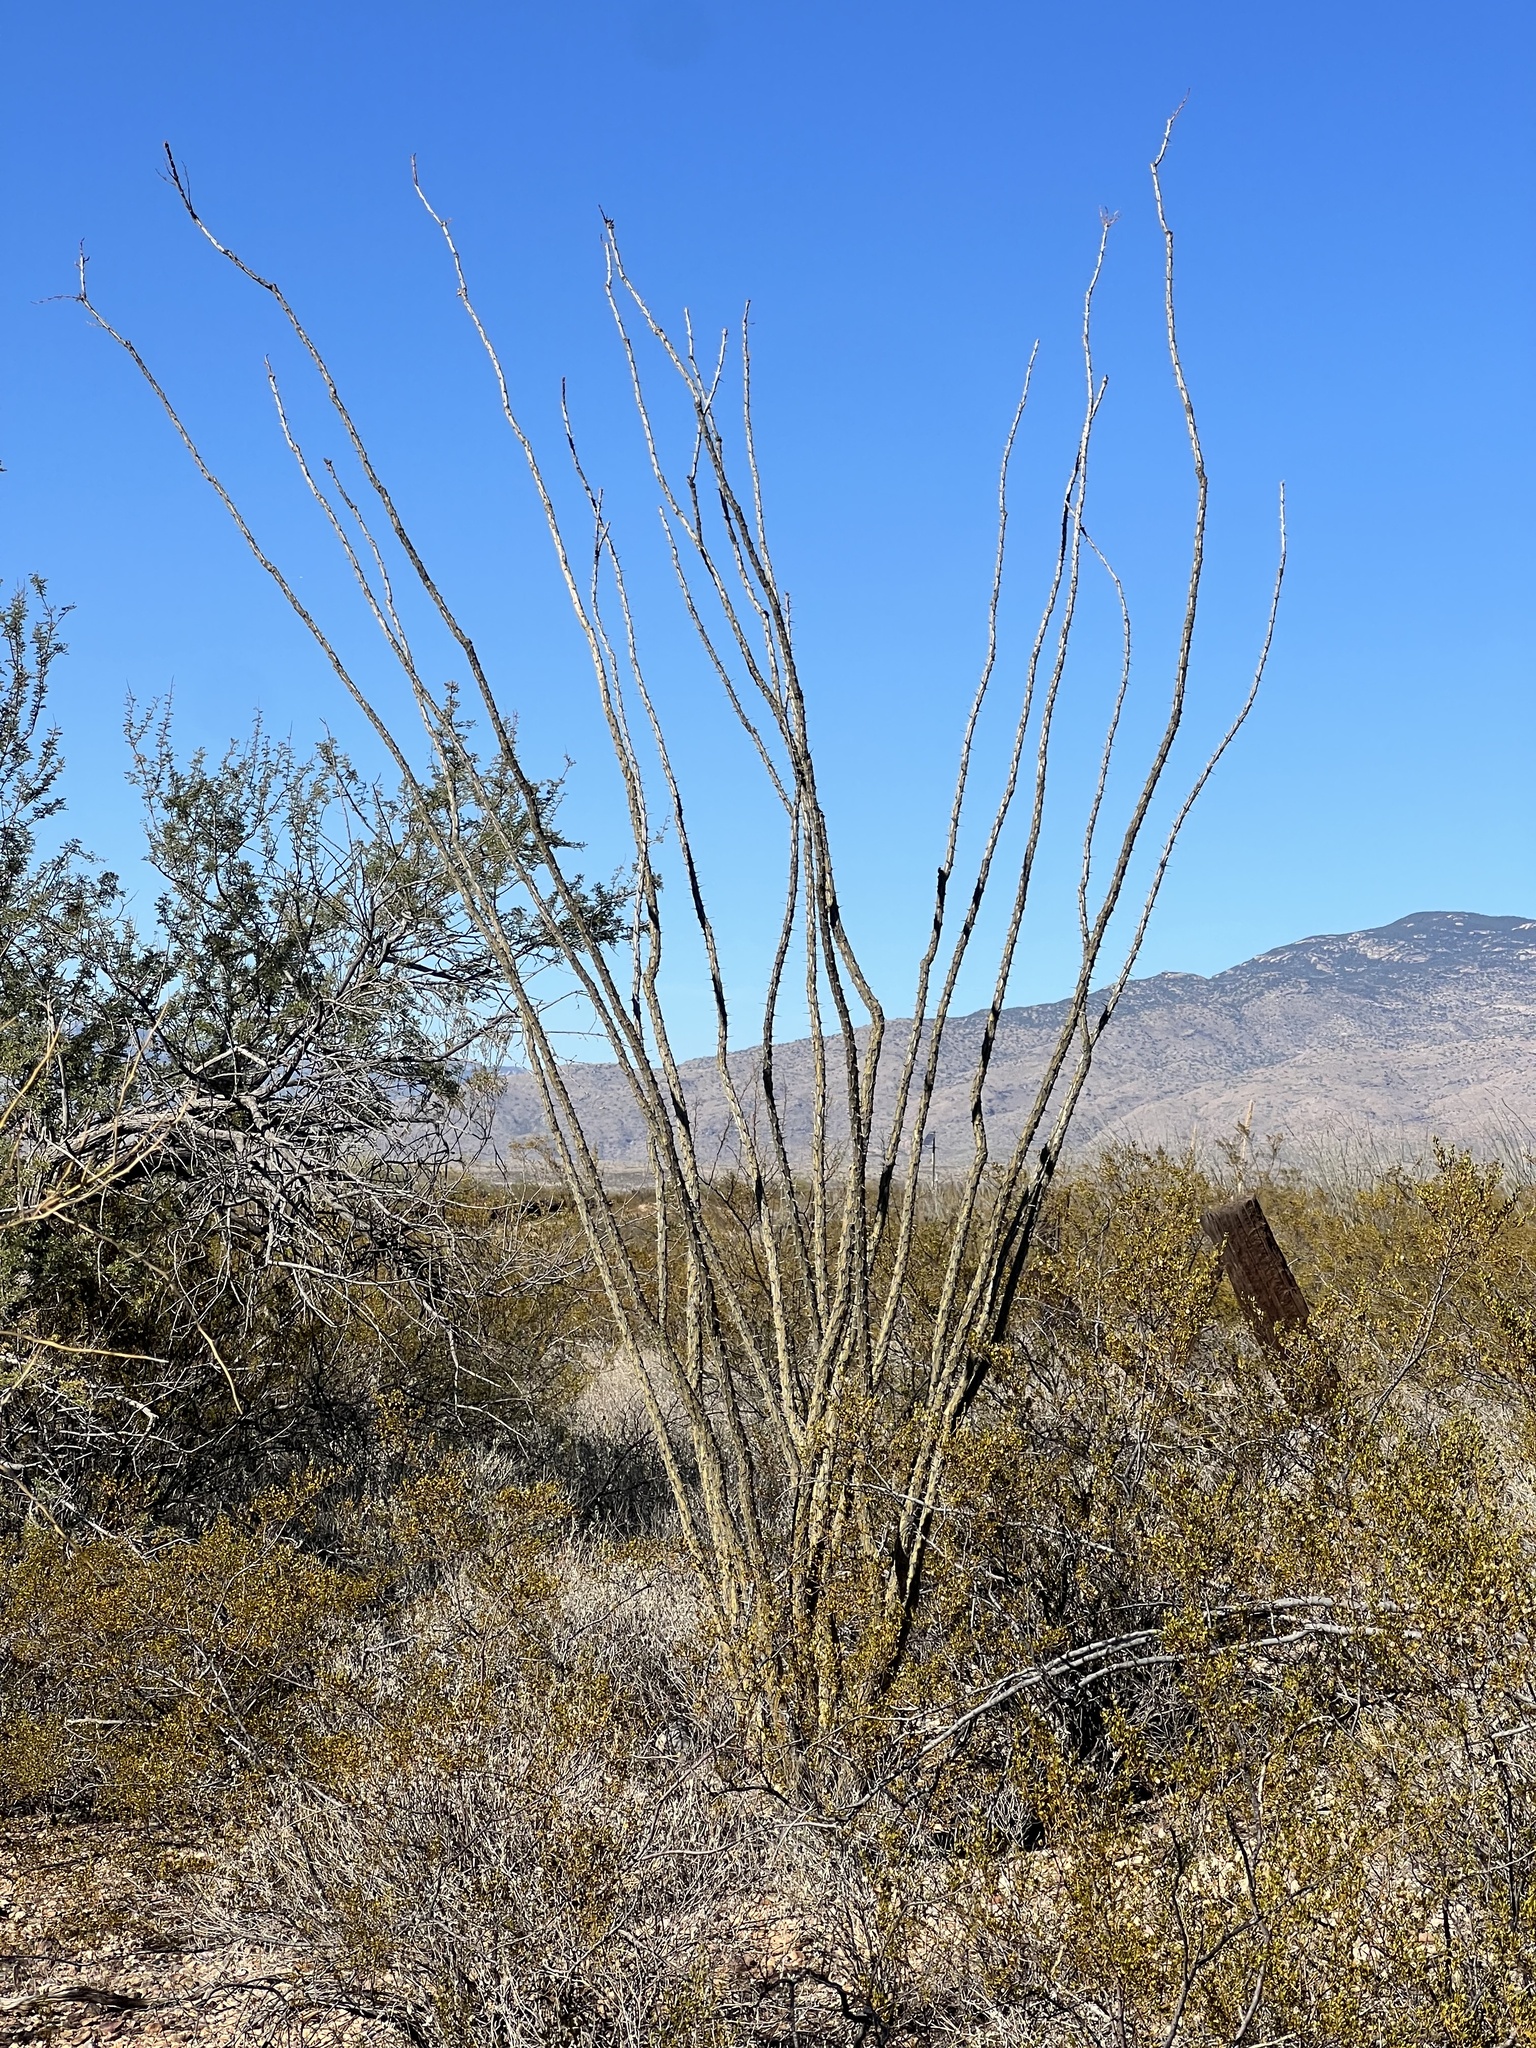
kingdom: Plantae
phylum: Tracheophyta
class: Magnoliopsida
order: Ericales
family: Fouquieriaceae
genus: Fouquieria
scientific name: Fouquieria splendens
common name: Vine-cactus
